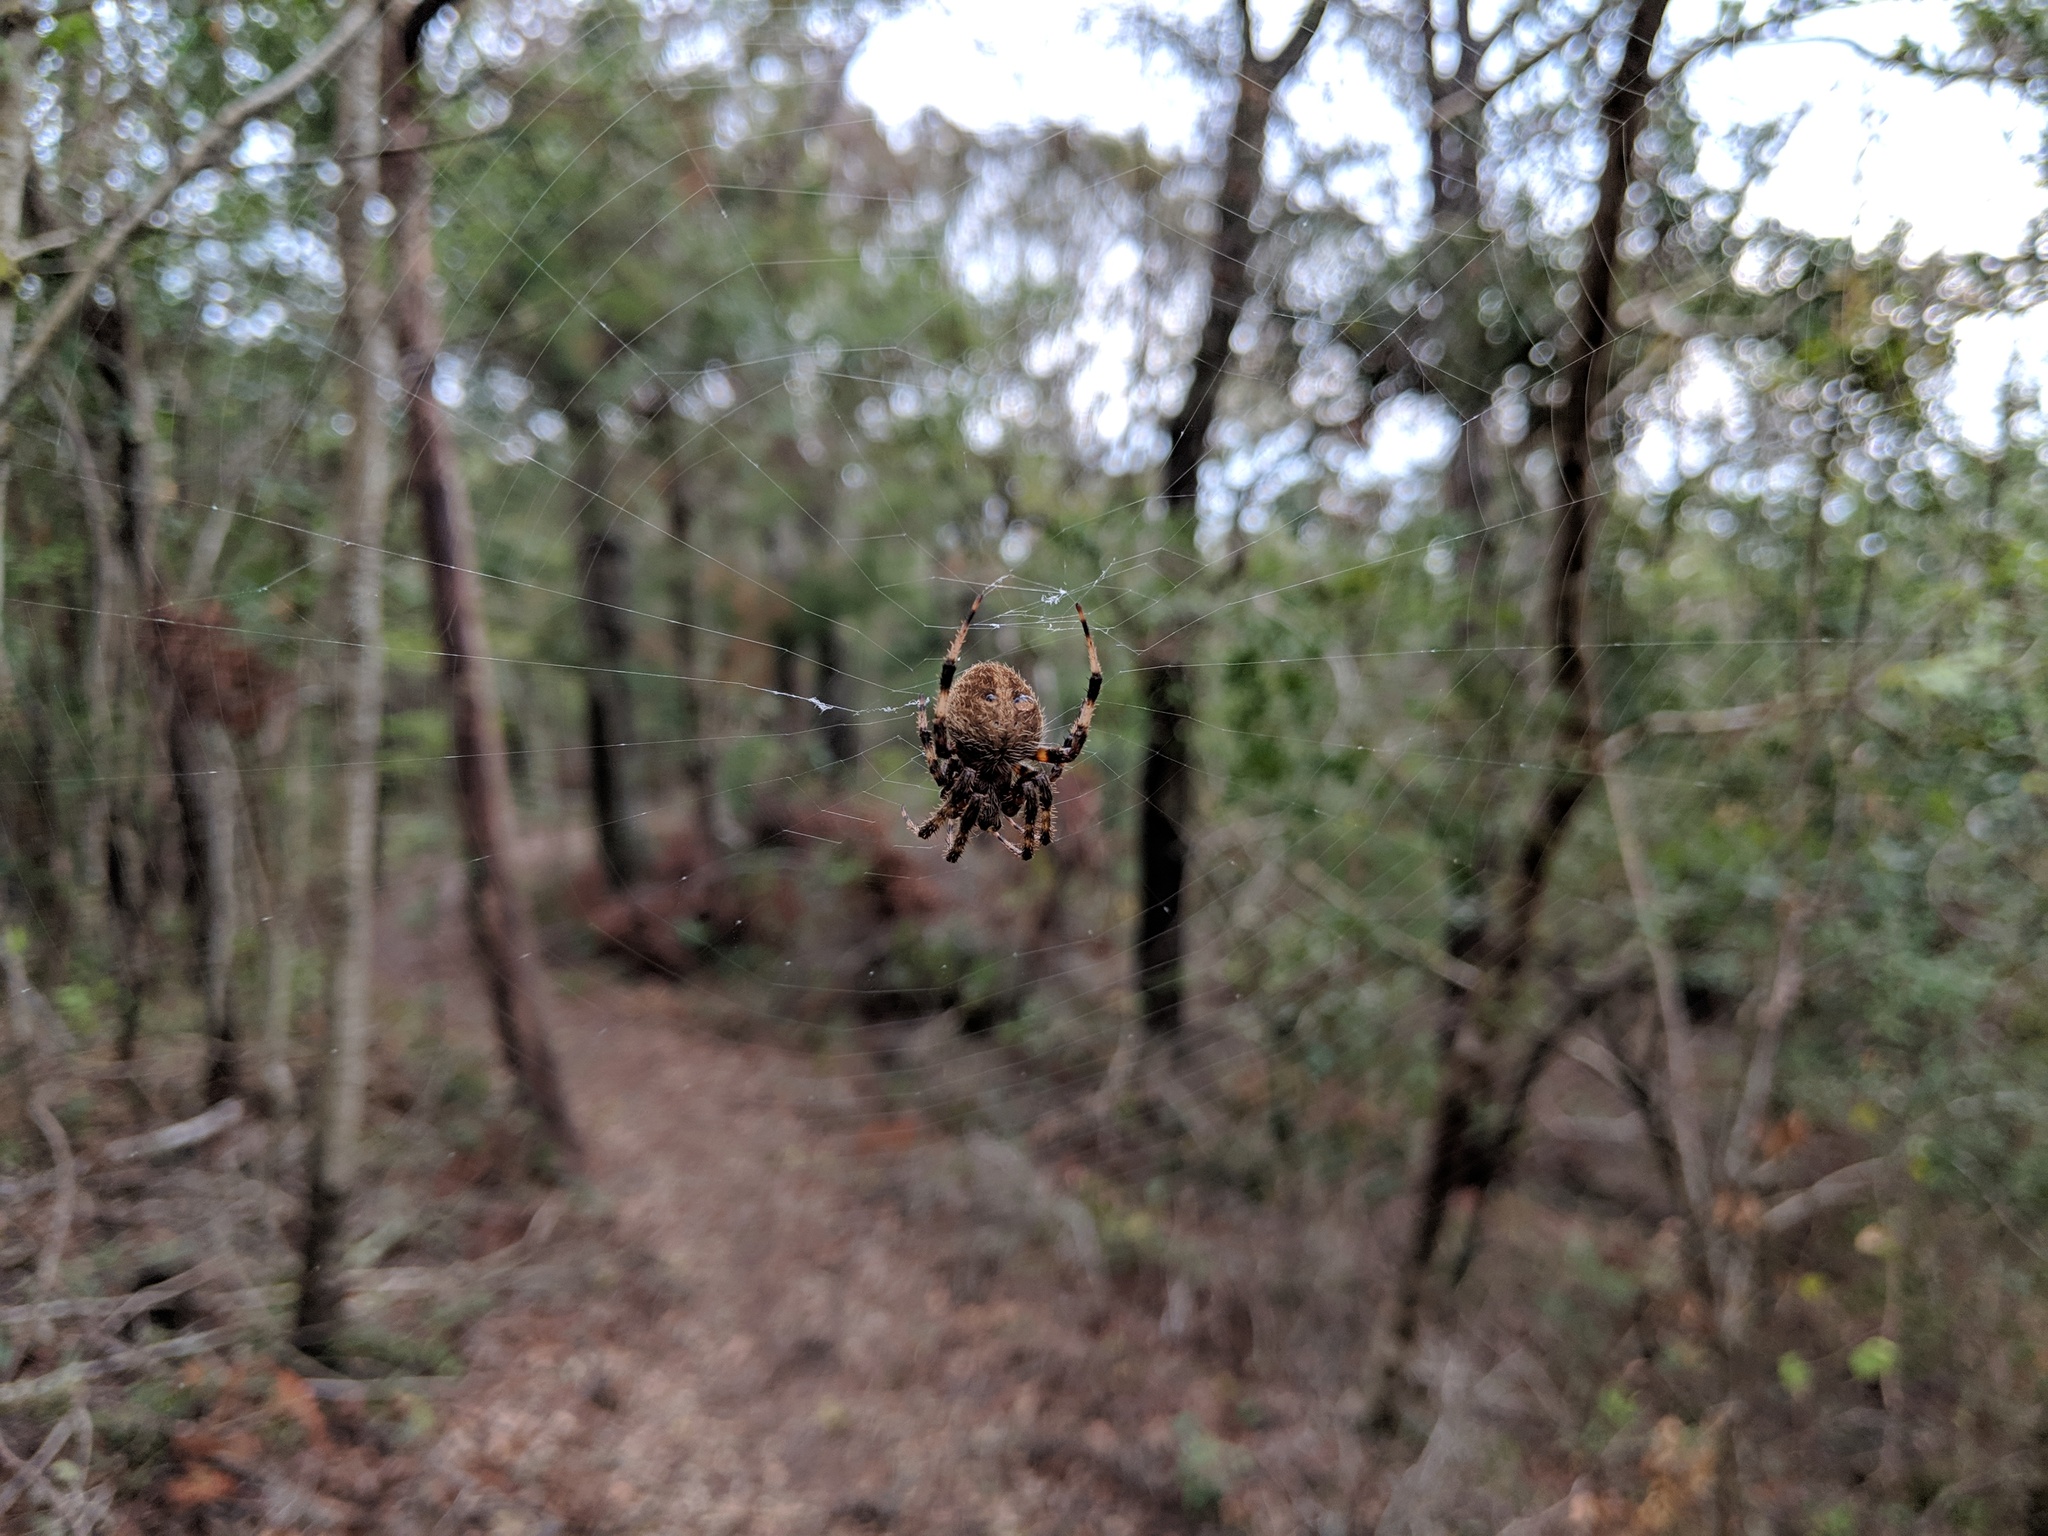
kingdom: Animalia
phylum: Arthropoda
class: Arachnida
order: Araneae
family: Araneidae
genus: Neoscona
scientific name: Neoscona crucifera
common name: Spotted orbweaver
